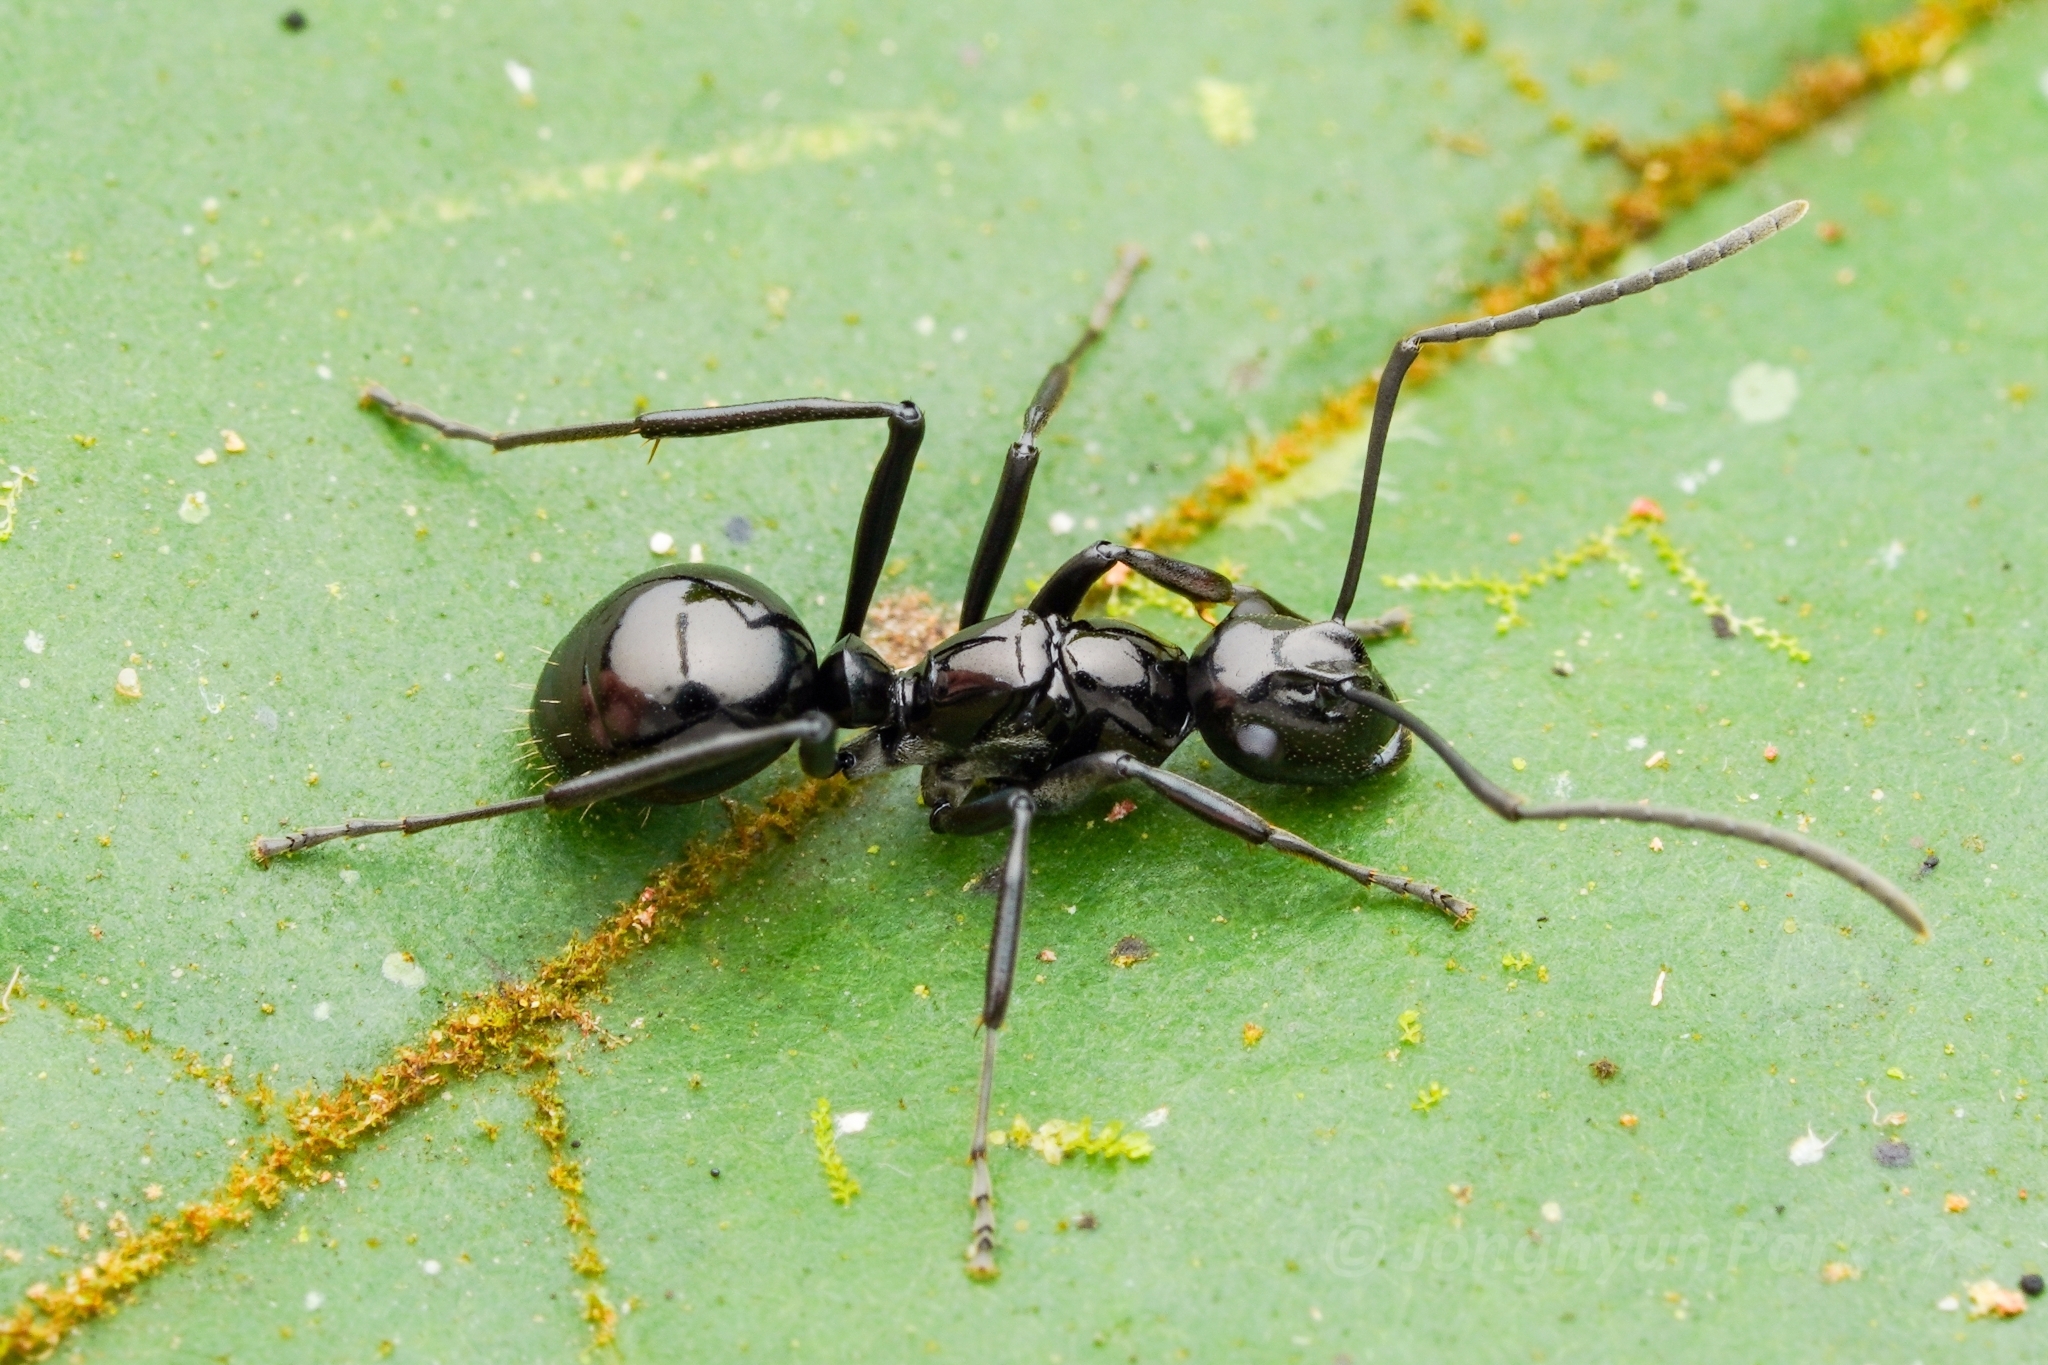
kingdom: Animalia
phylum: Arthropoda
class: Insecta
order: Hymenoptera
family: Formicidae
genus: Polyrhachis
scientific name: Polyrhachis boltoni
